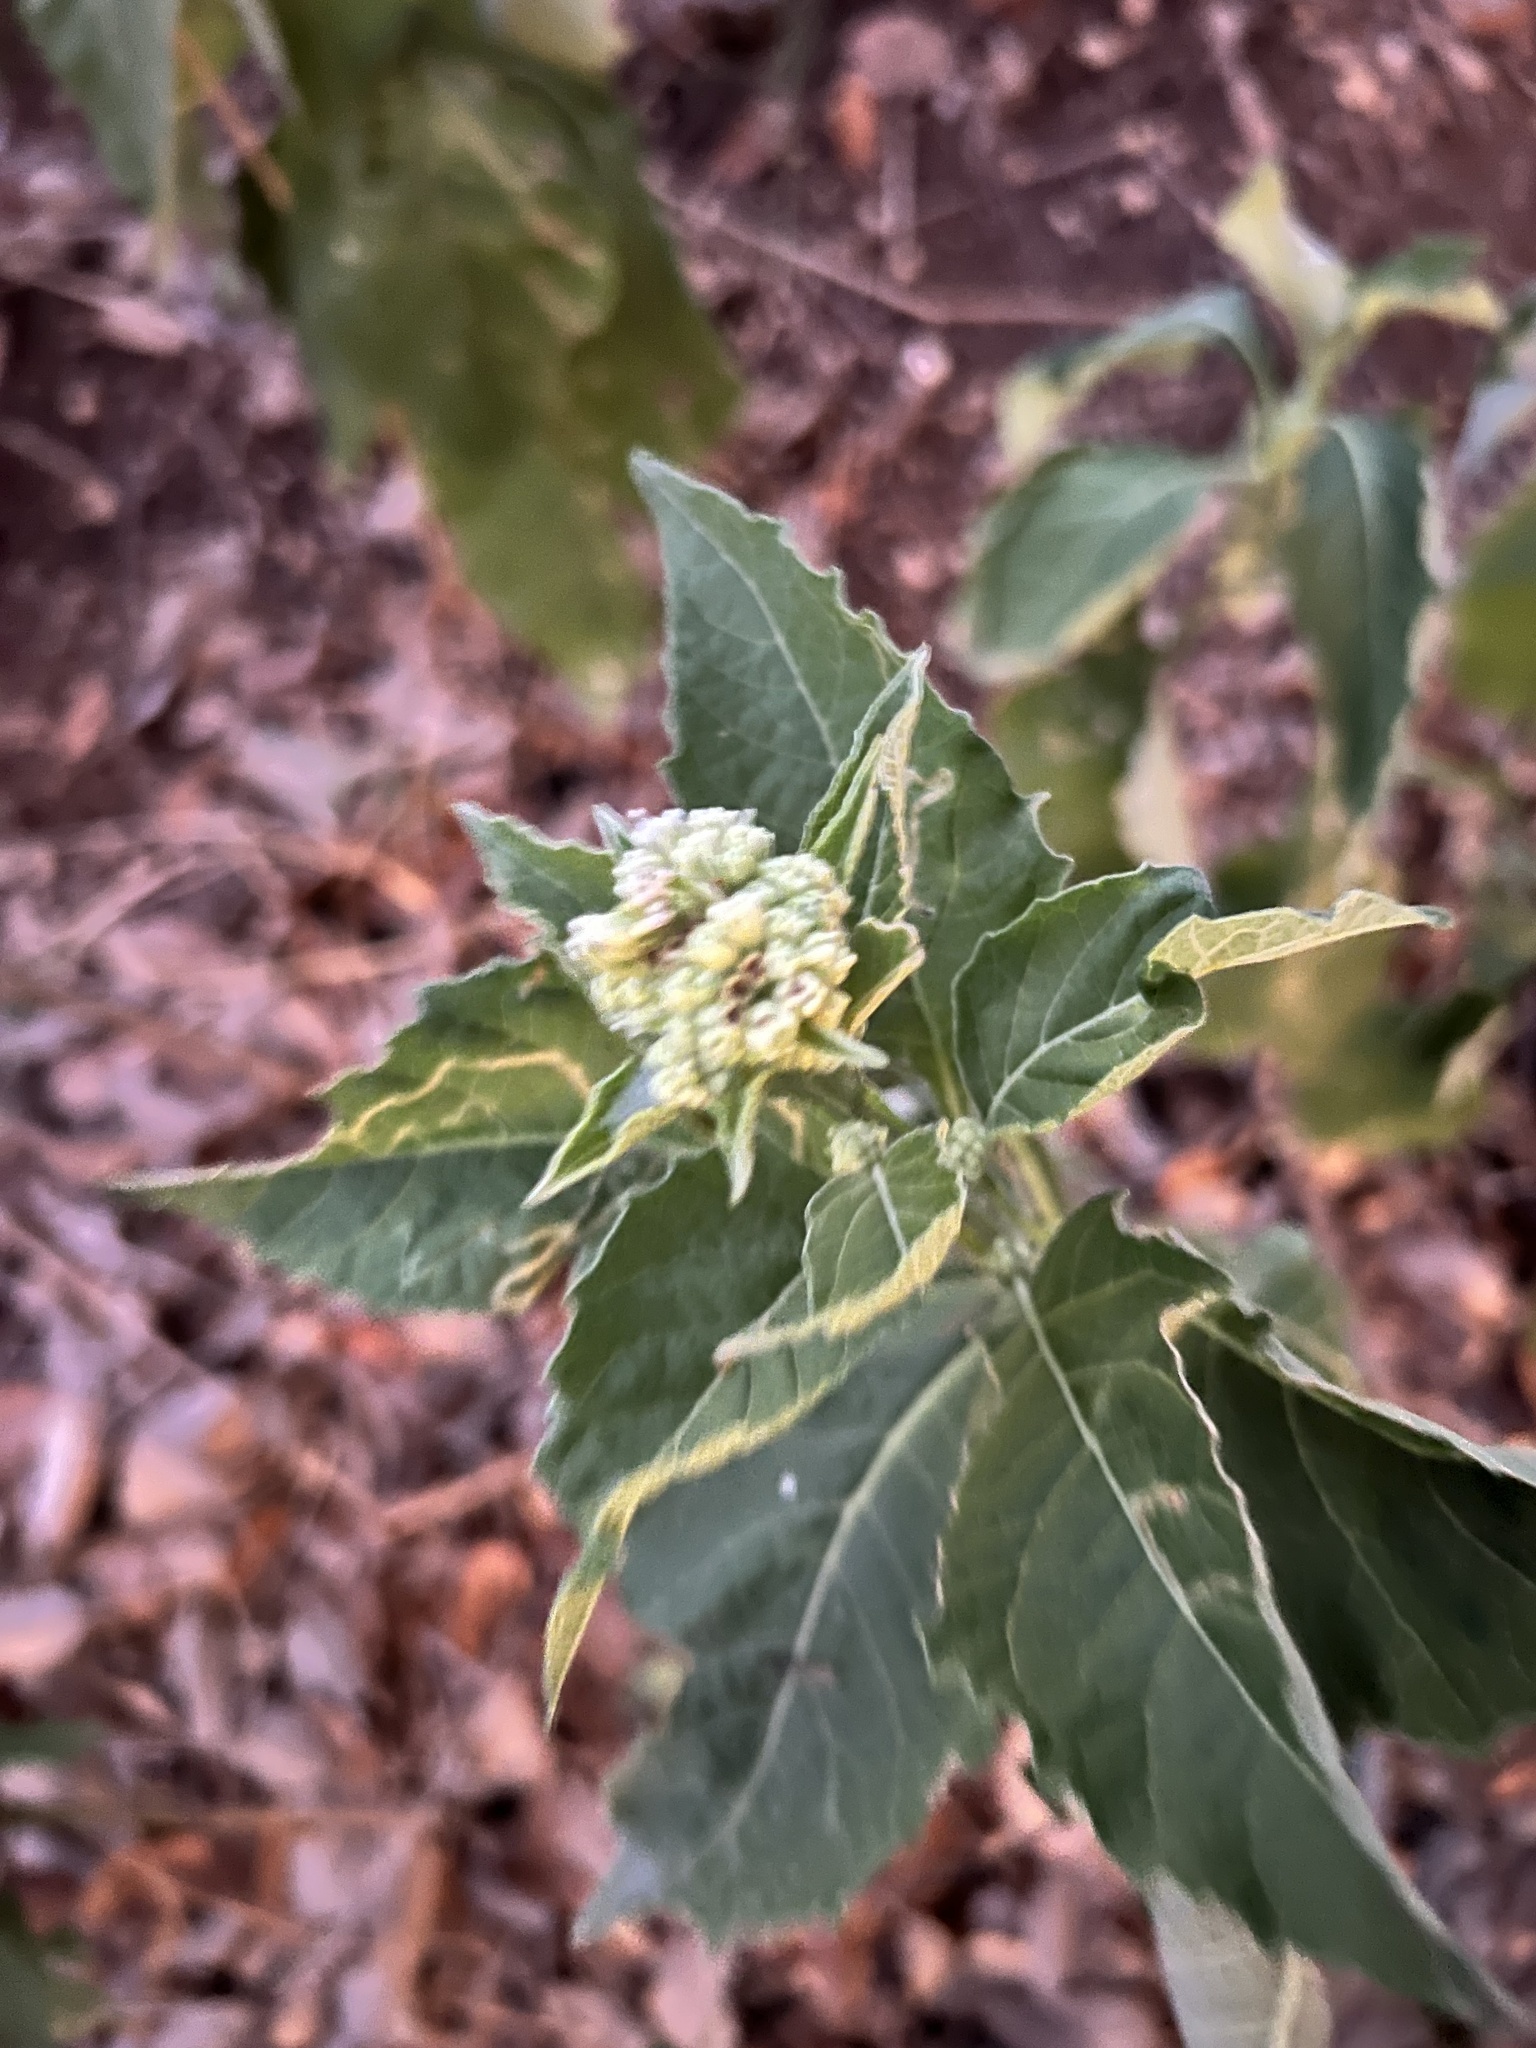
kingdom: Plantae
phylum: Tracheophyta
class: Magnoliopsida
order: Asterales
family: Asteraceae
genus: Verbesina
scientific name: Verbesina virginica
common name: Frostweed
